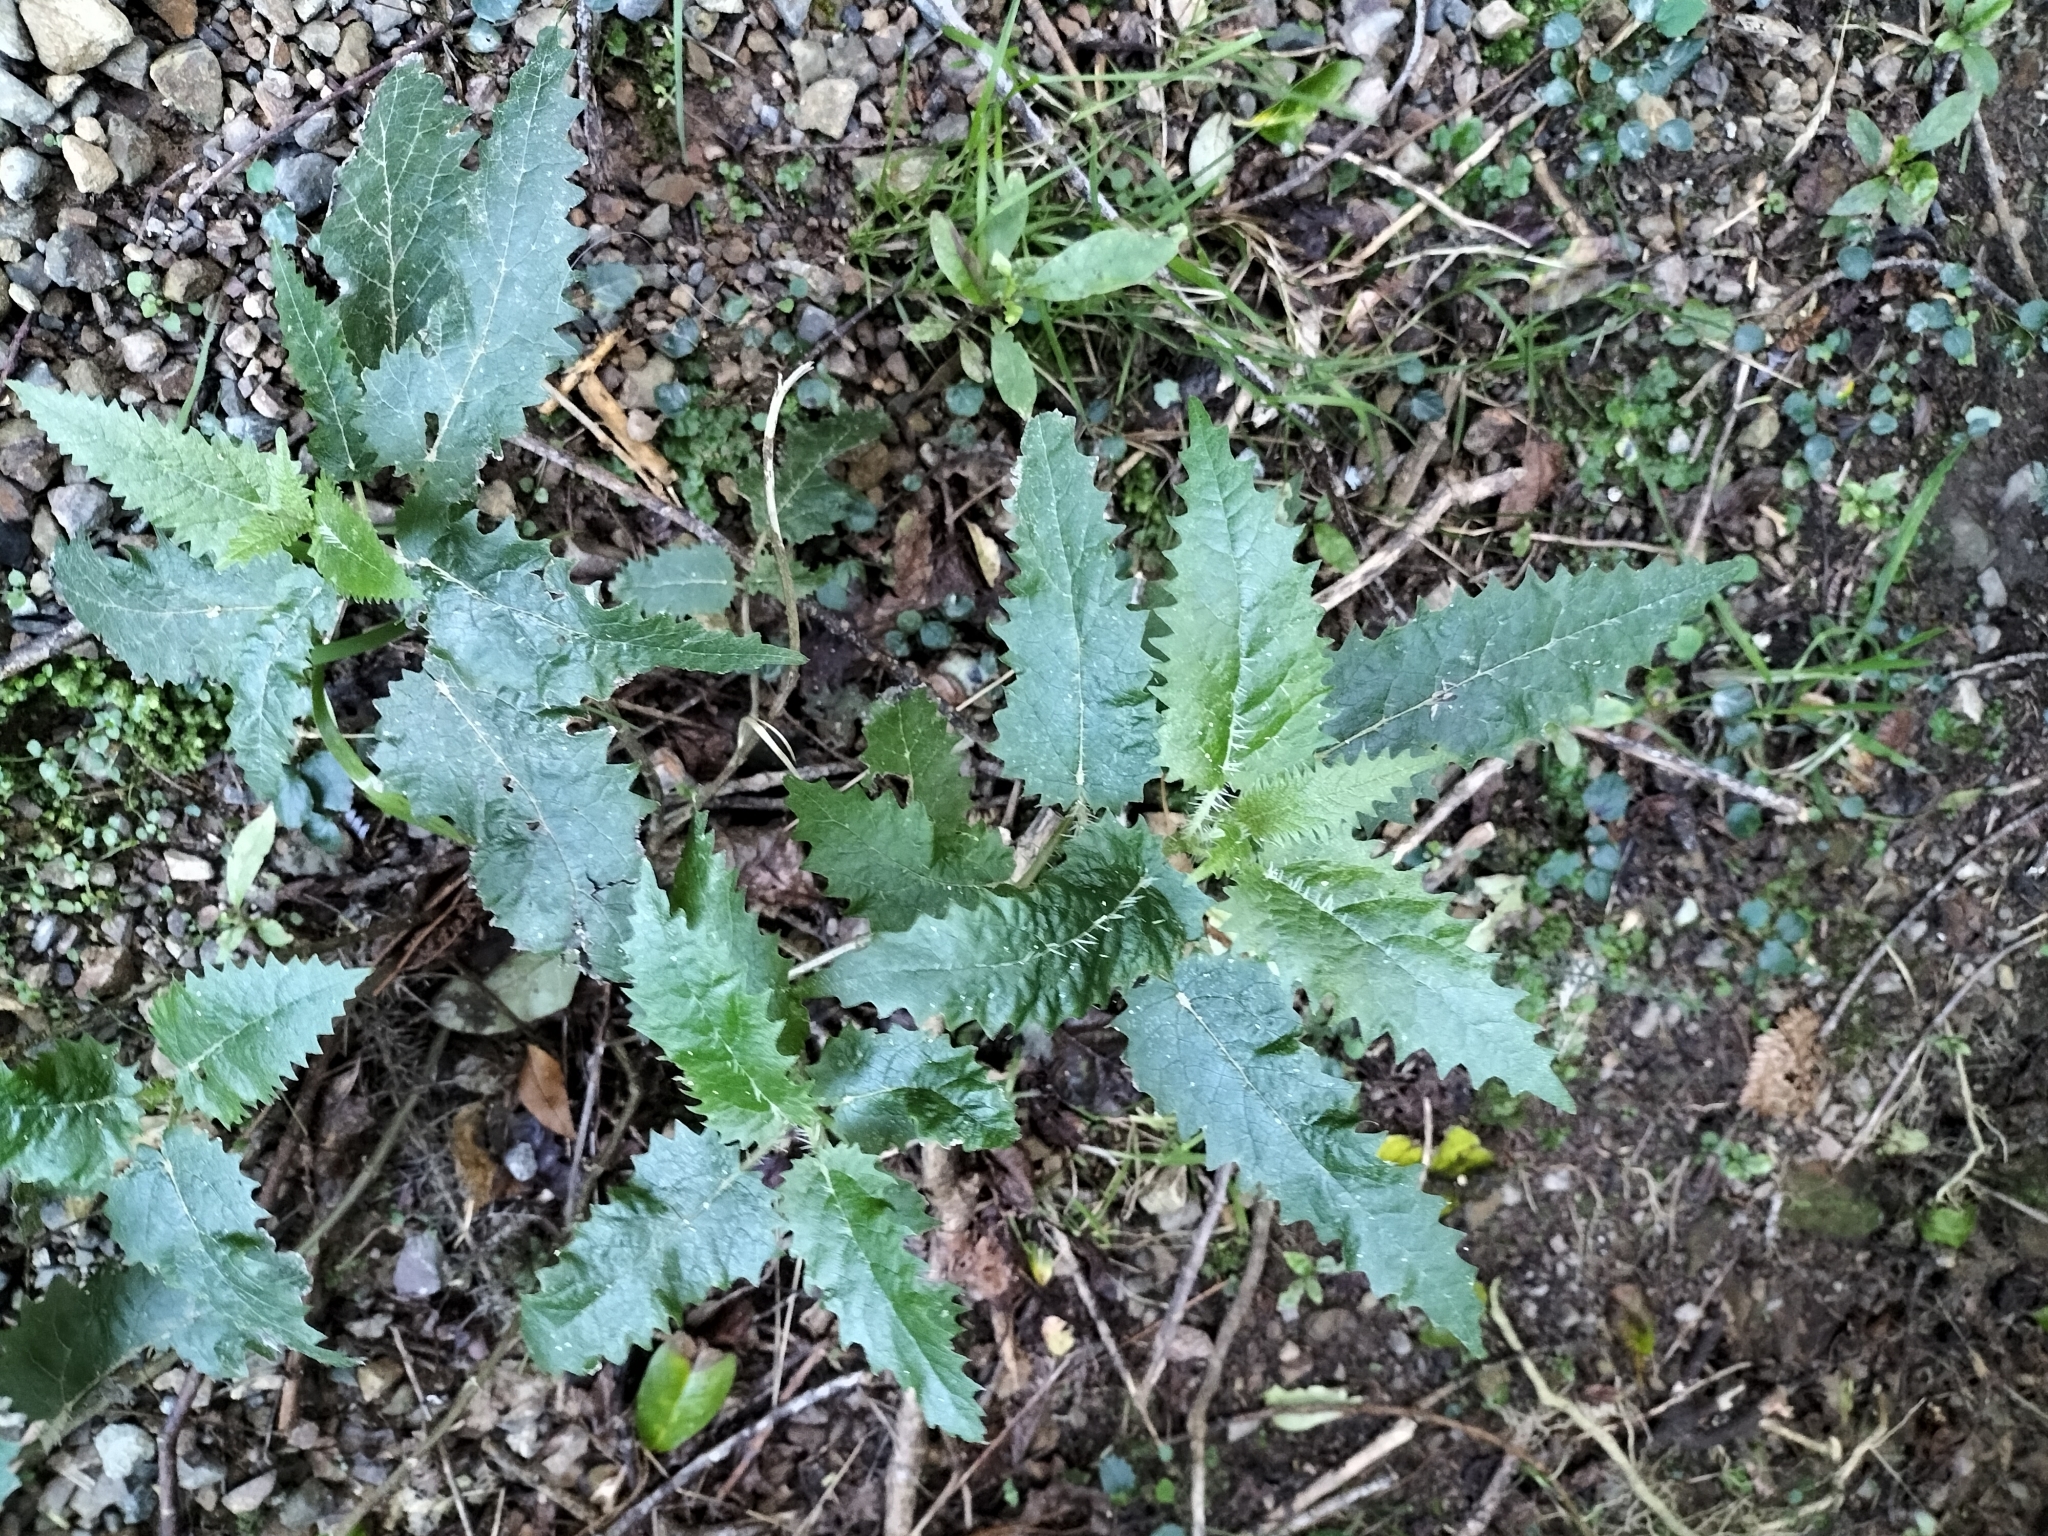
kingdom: Plantae
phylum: Tracheophyta
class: Magnoliopsida
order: Rosales
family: Urticaceae
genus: Urtica
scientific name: Urtica ferox
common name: Tree nettle
